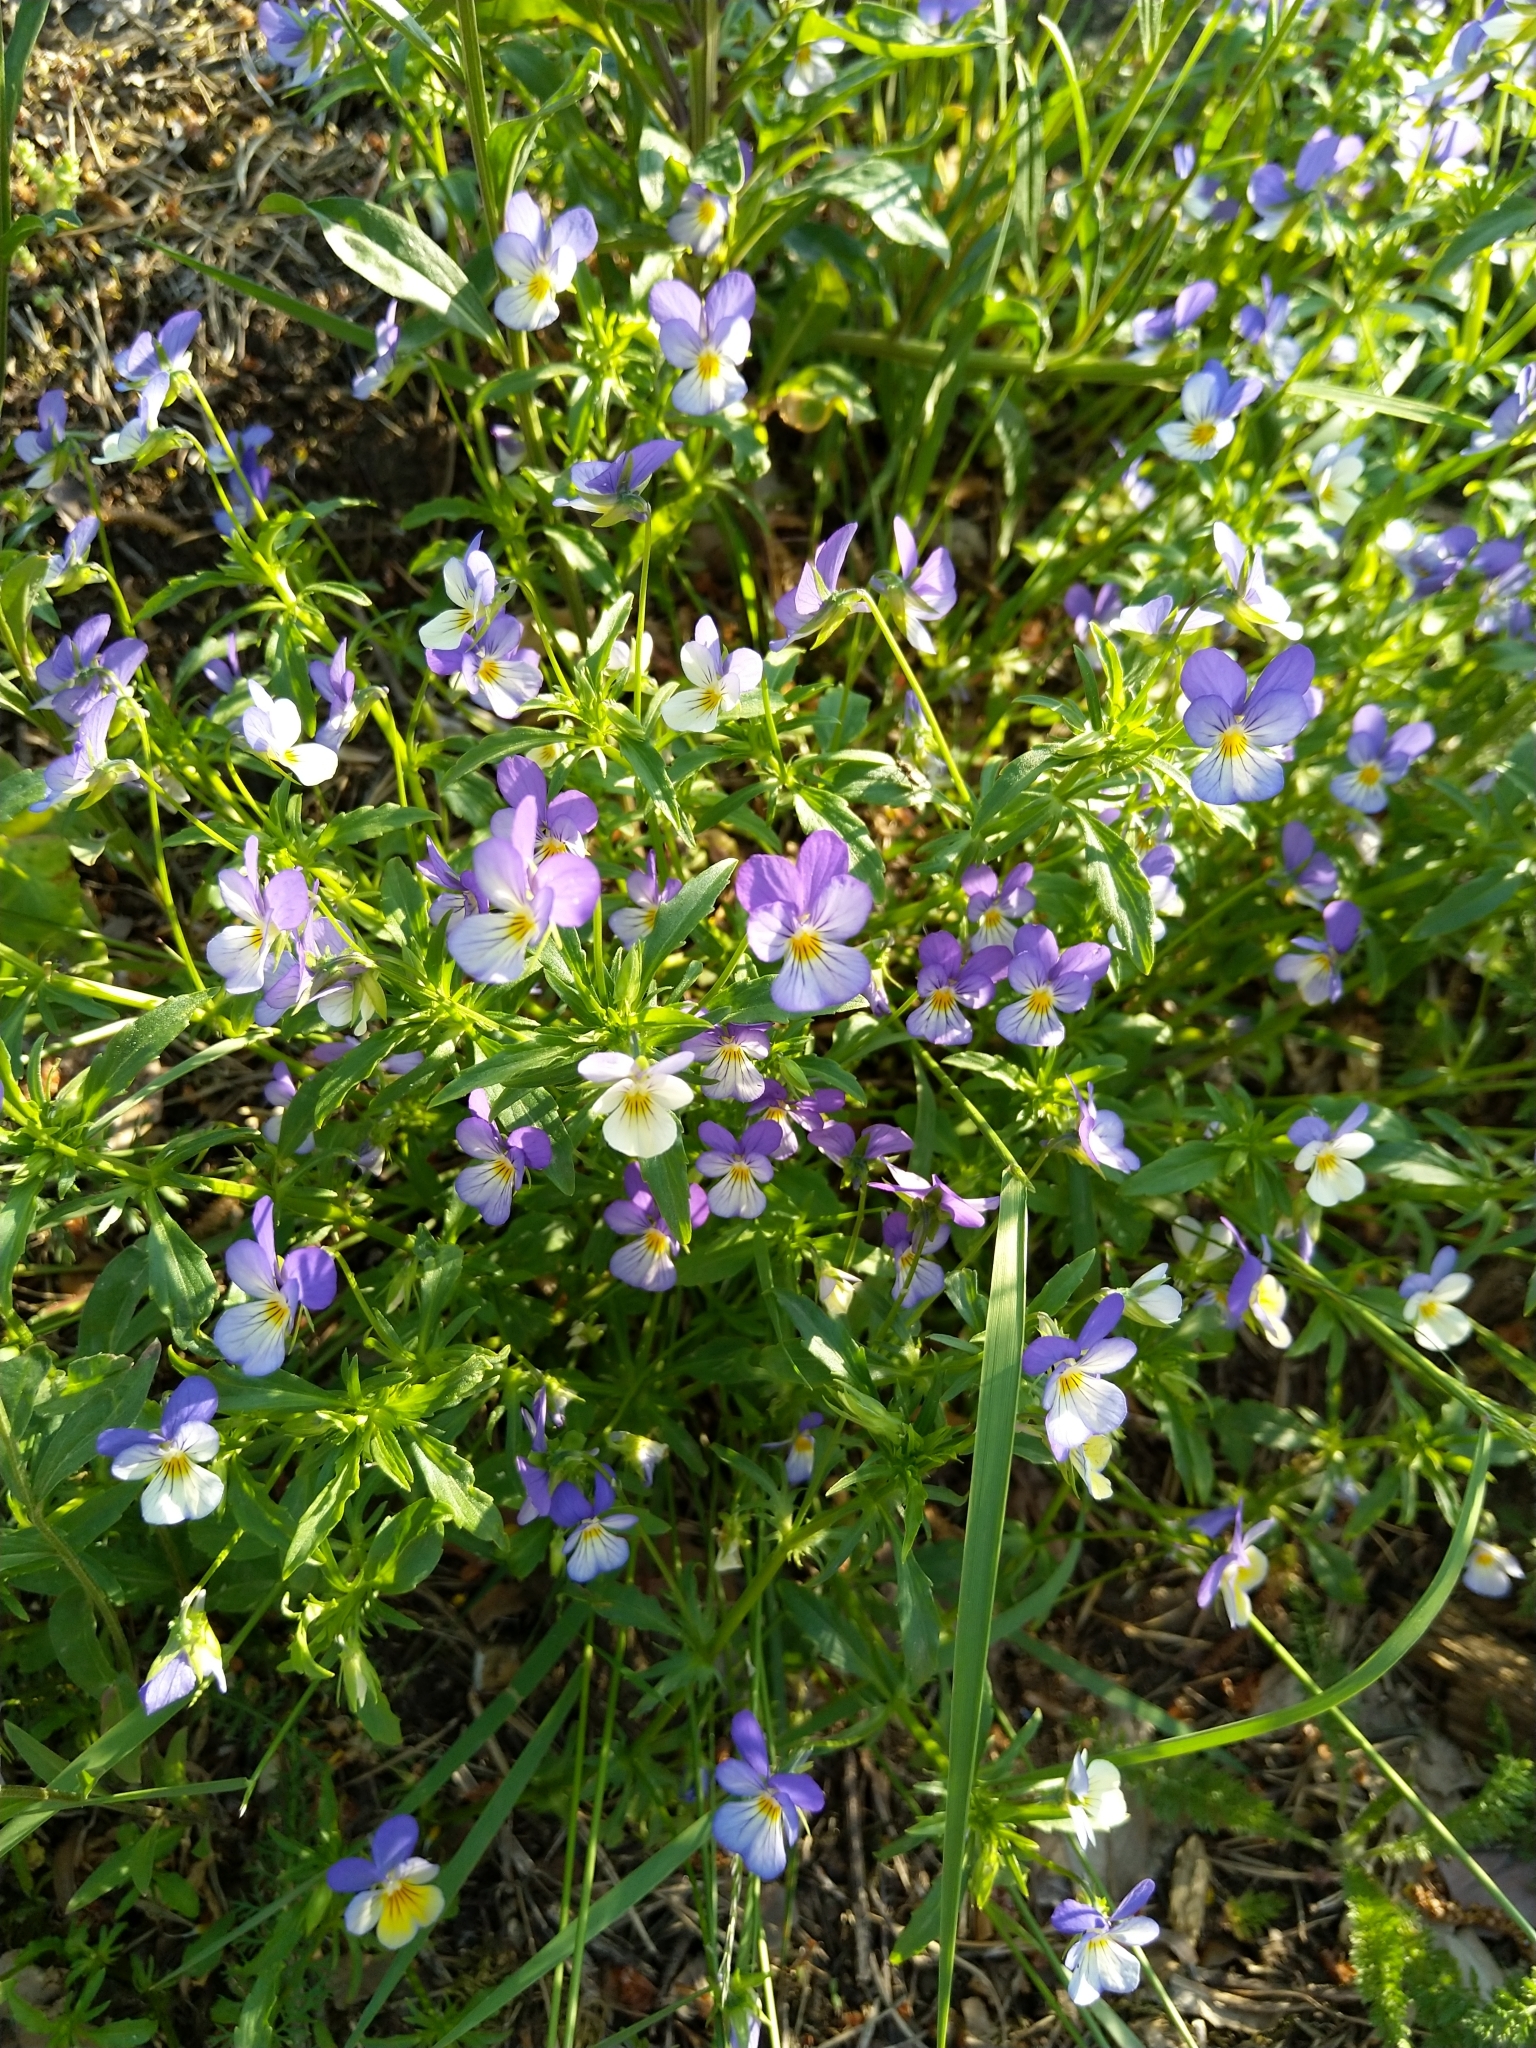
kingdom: Plantae
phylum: Tracheophyta
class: Magnoliopsida
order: Malpighiales
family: Violaceae
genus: Viola
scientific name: Viola tricolor
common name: Pansy
